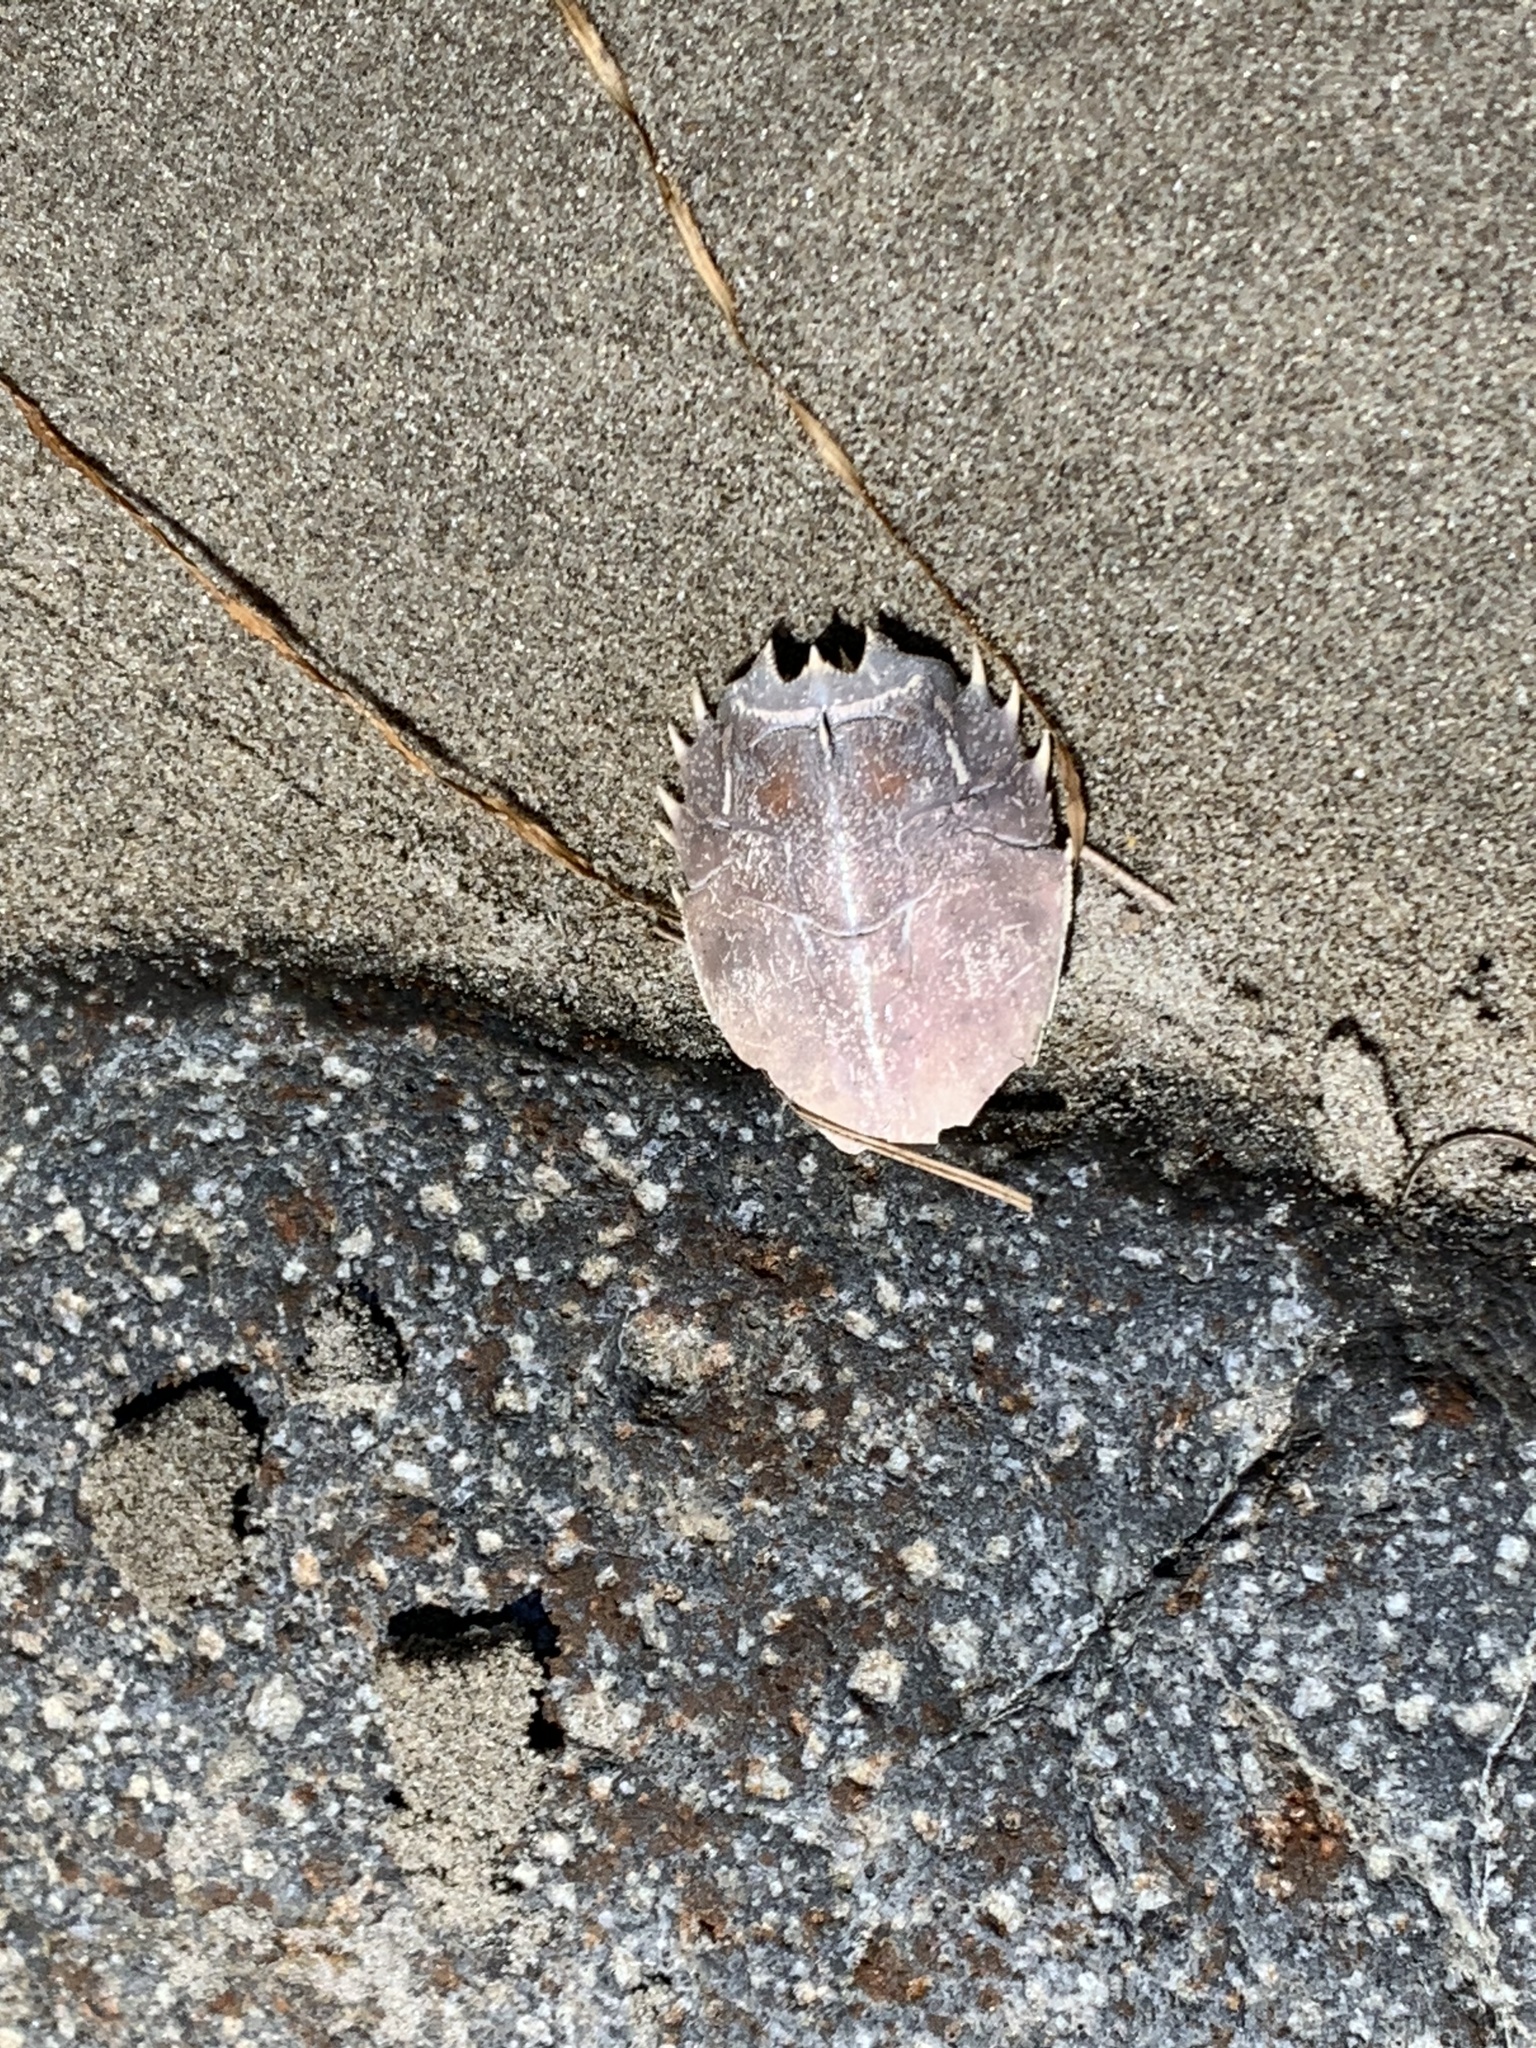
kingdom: Animalia
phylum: Arthropoda
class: Malacostraca
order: Decapoda
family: Blepharipodidae
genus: Blepharipoda
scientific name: Blepharipoda occidentalis
